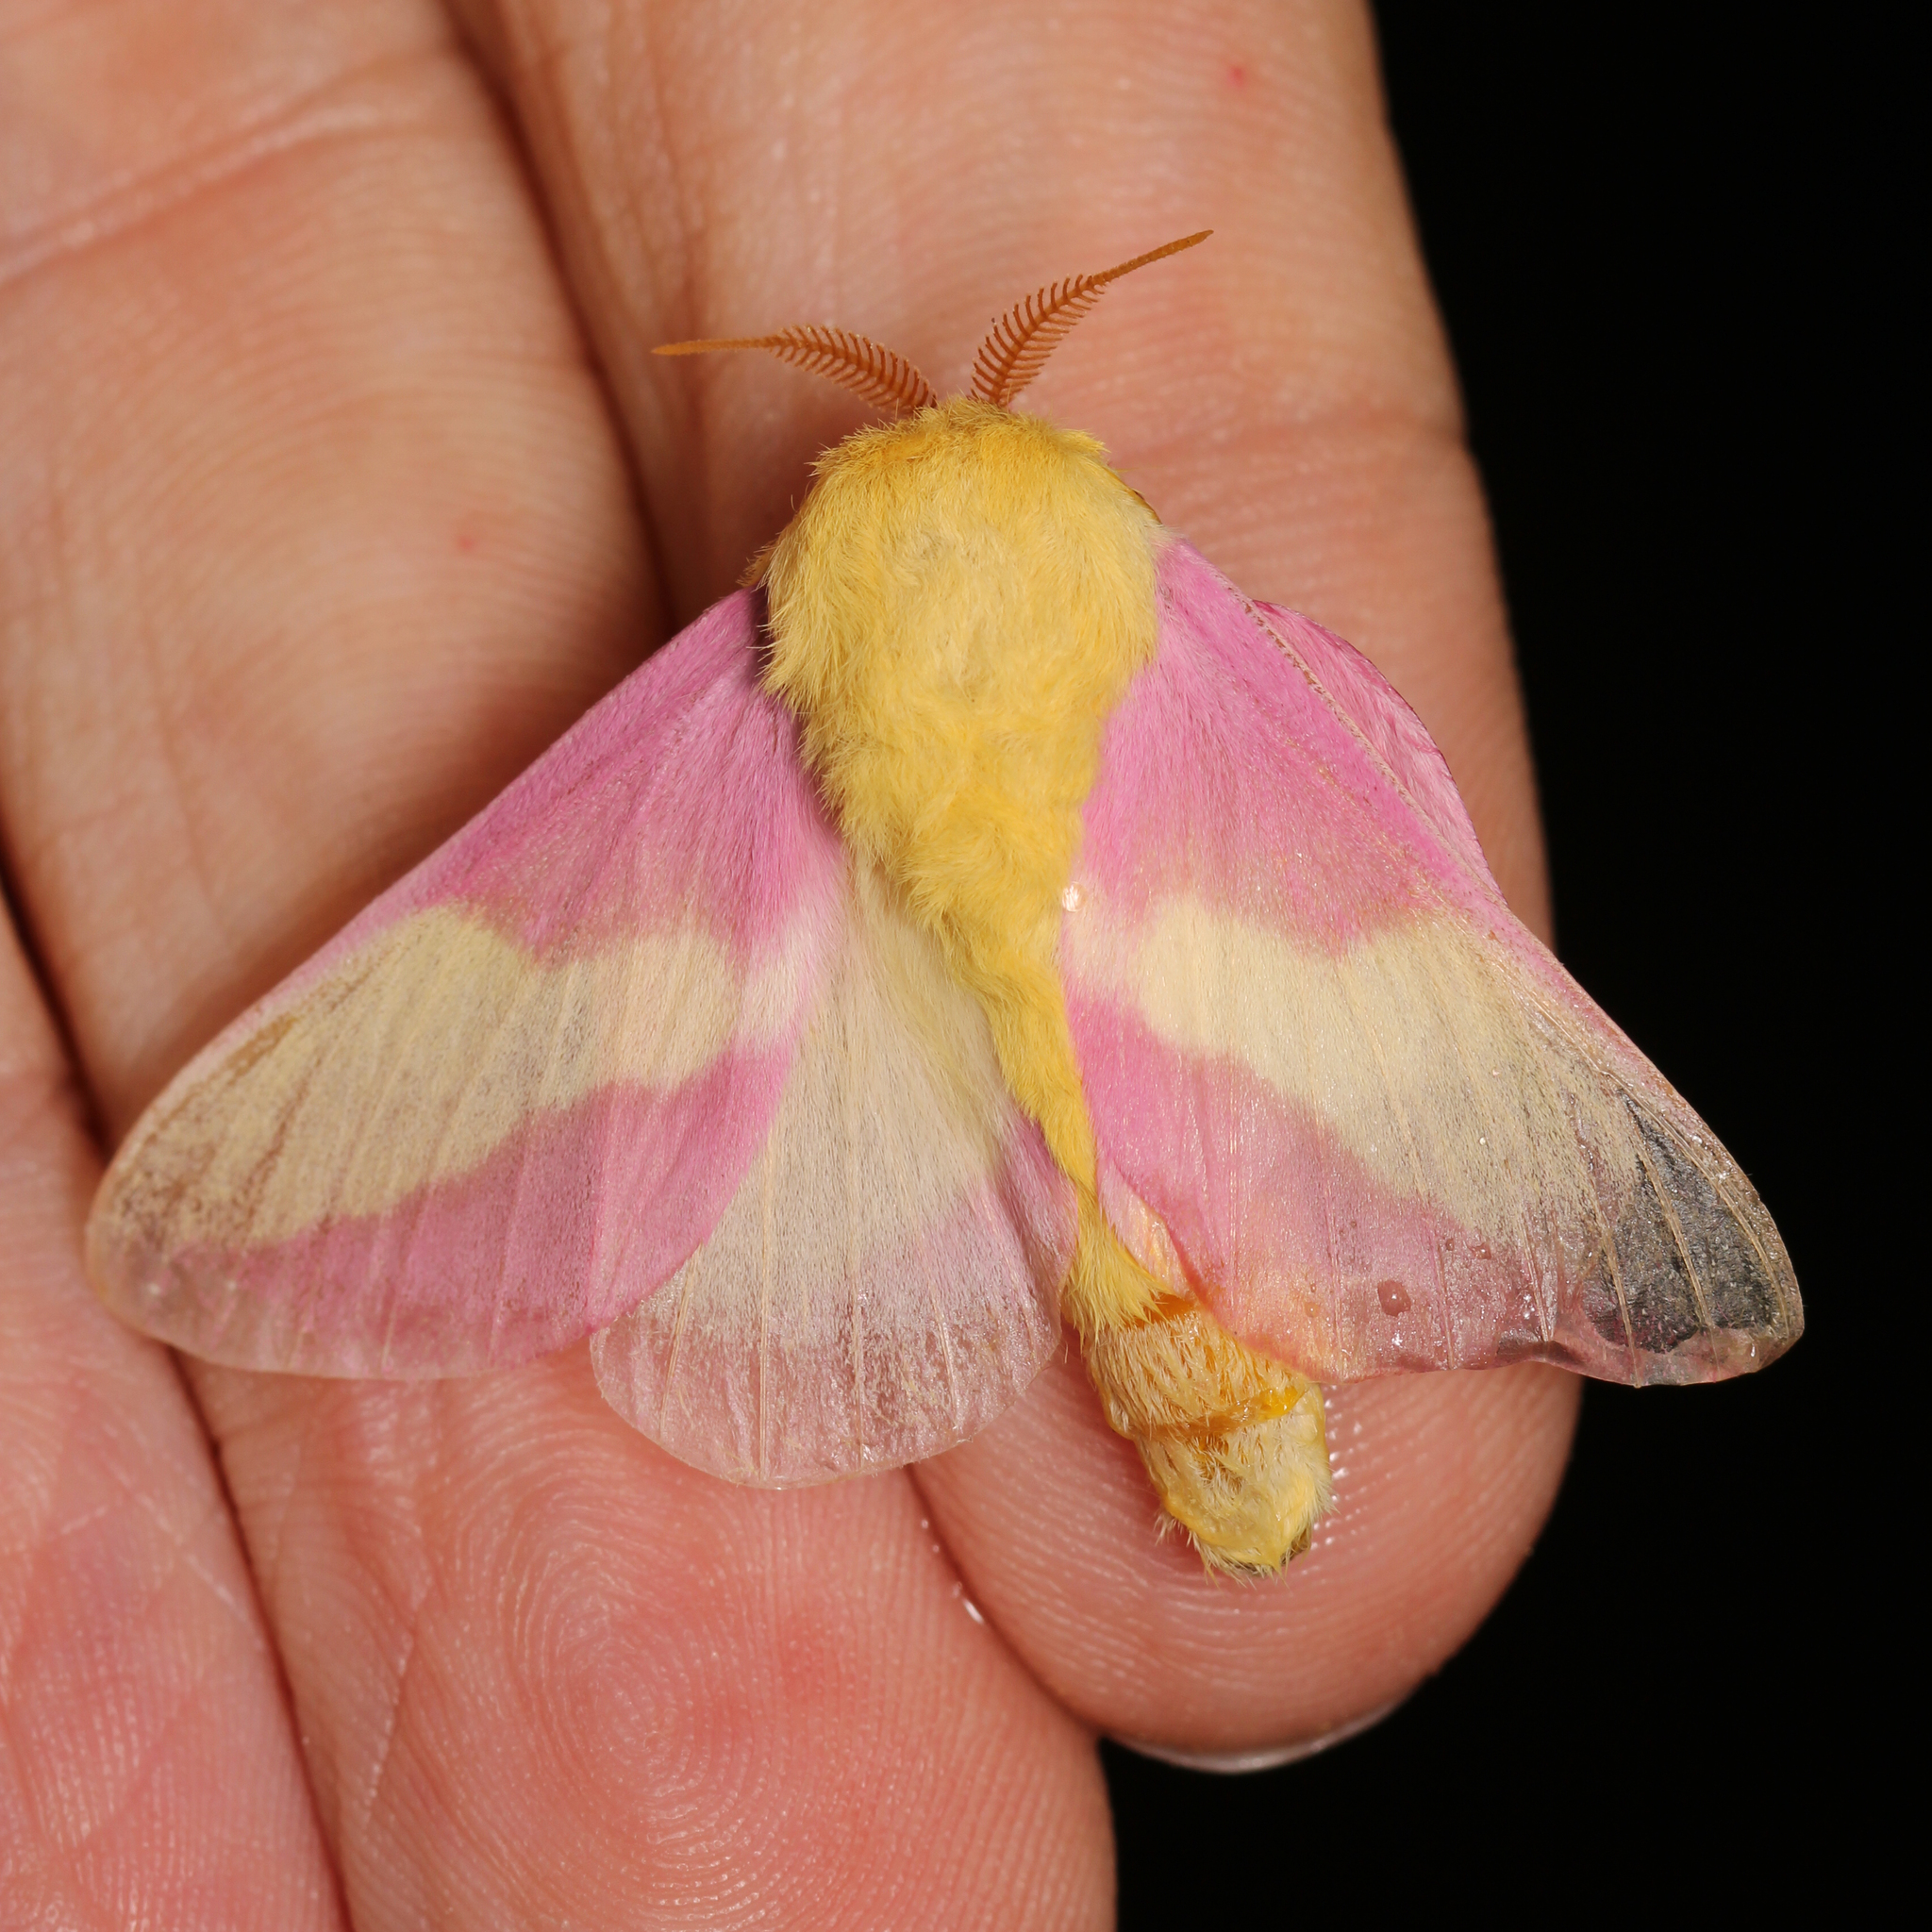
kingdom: Animalia
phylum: Arthropoda
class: Insecta
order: Lepidoptera
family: Saturniidae
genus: Dryocampa
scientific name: Dryocampa rubicunda
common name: Rosy maple moth
